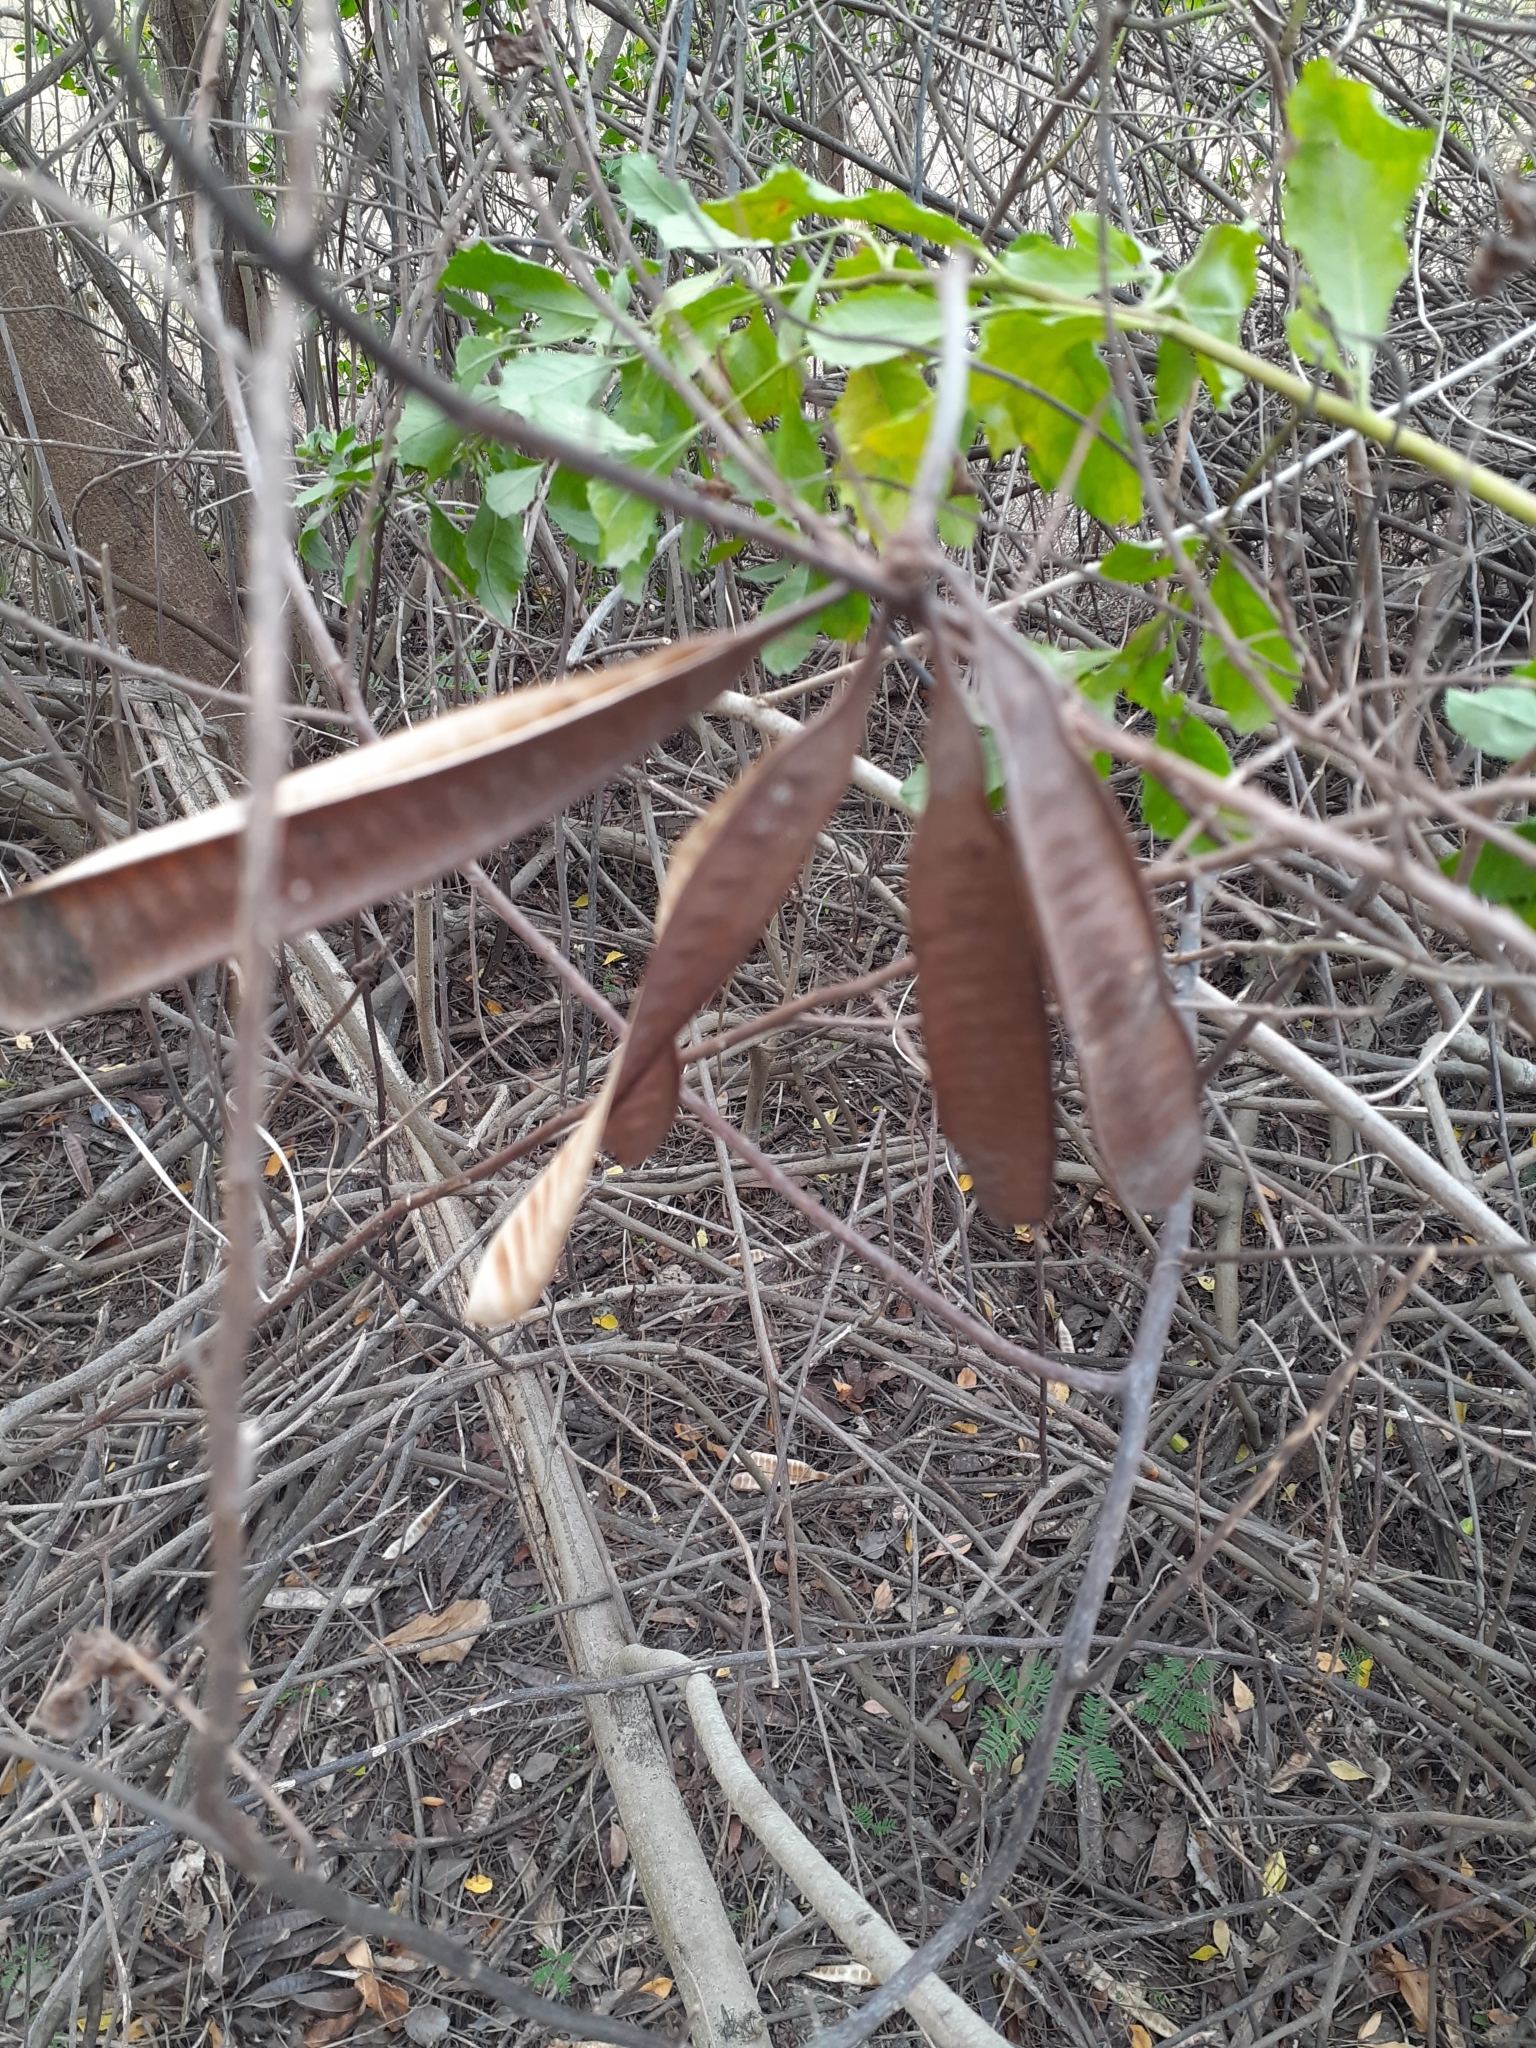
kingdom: Plantae
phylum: Tracheophyta
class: Magnoliopsida
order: Fabales
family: Fabaceae
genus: Leucaena
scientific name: Leucaena leucocephala
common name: White leadtree
